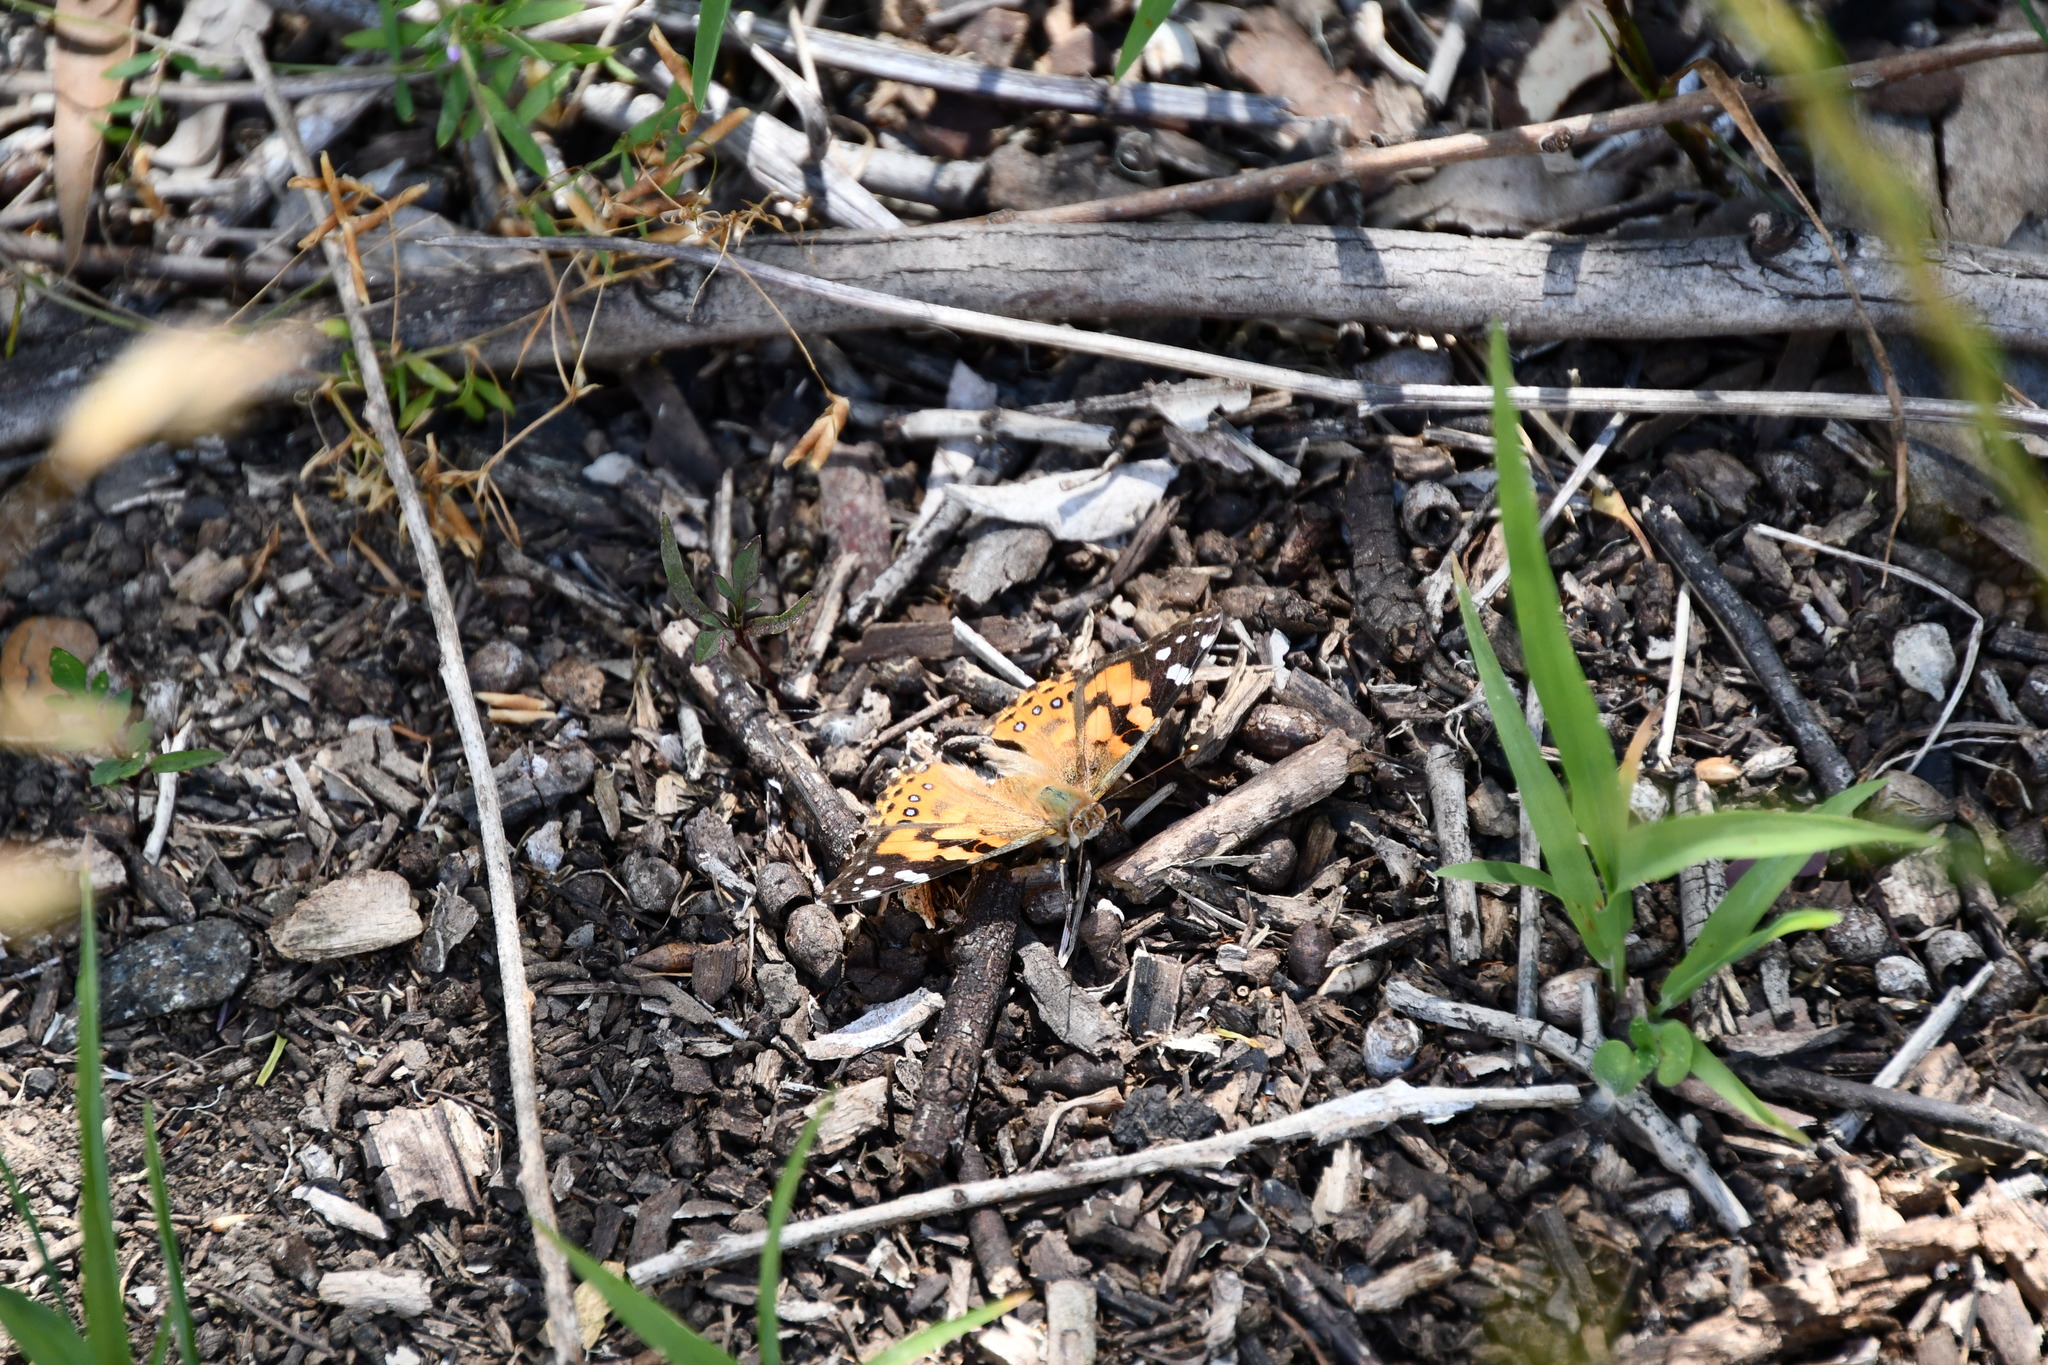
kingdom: Animalia
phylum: Arthropoda
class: Insecta
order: Lepidoptera
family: Nymphalidae
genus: Vanessa
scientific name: Vanessa kershawi
